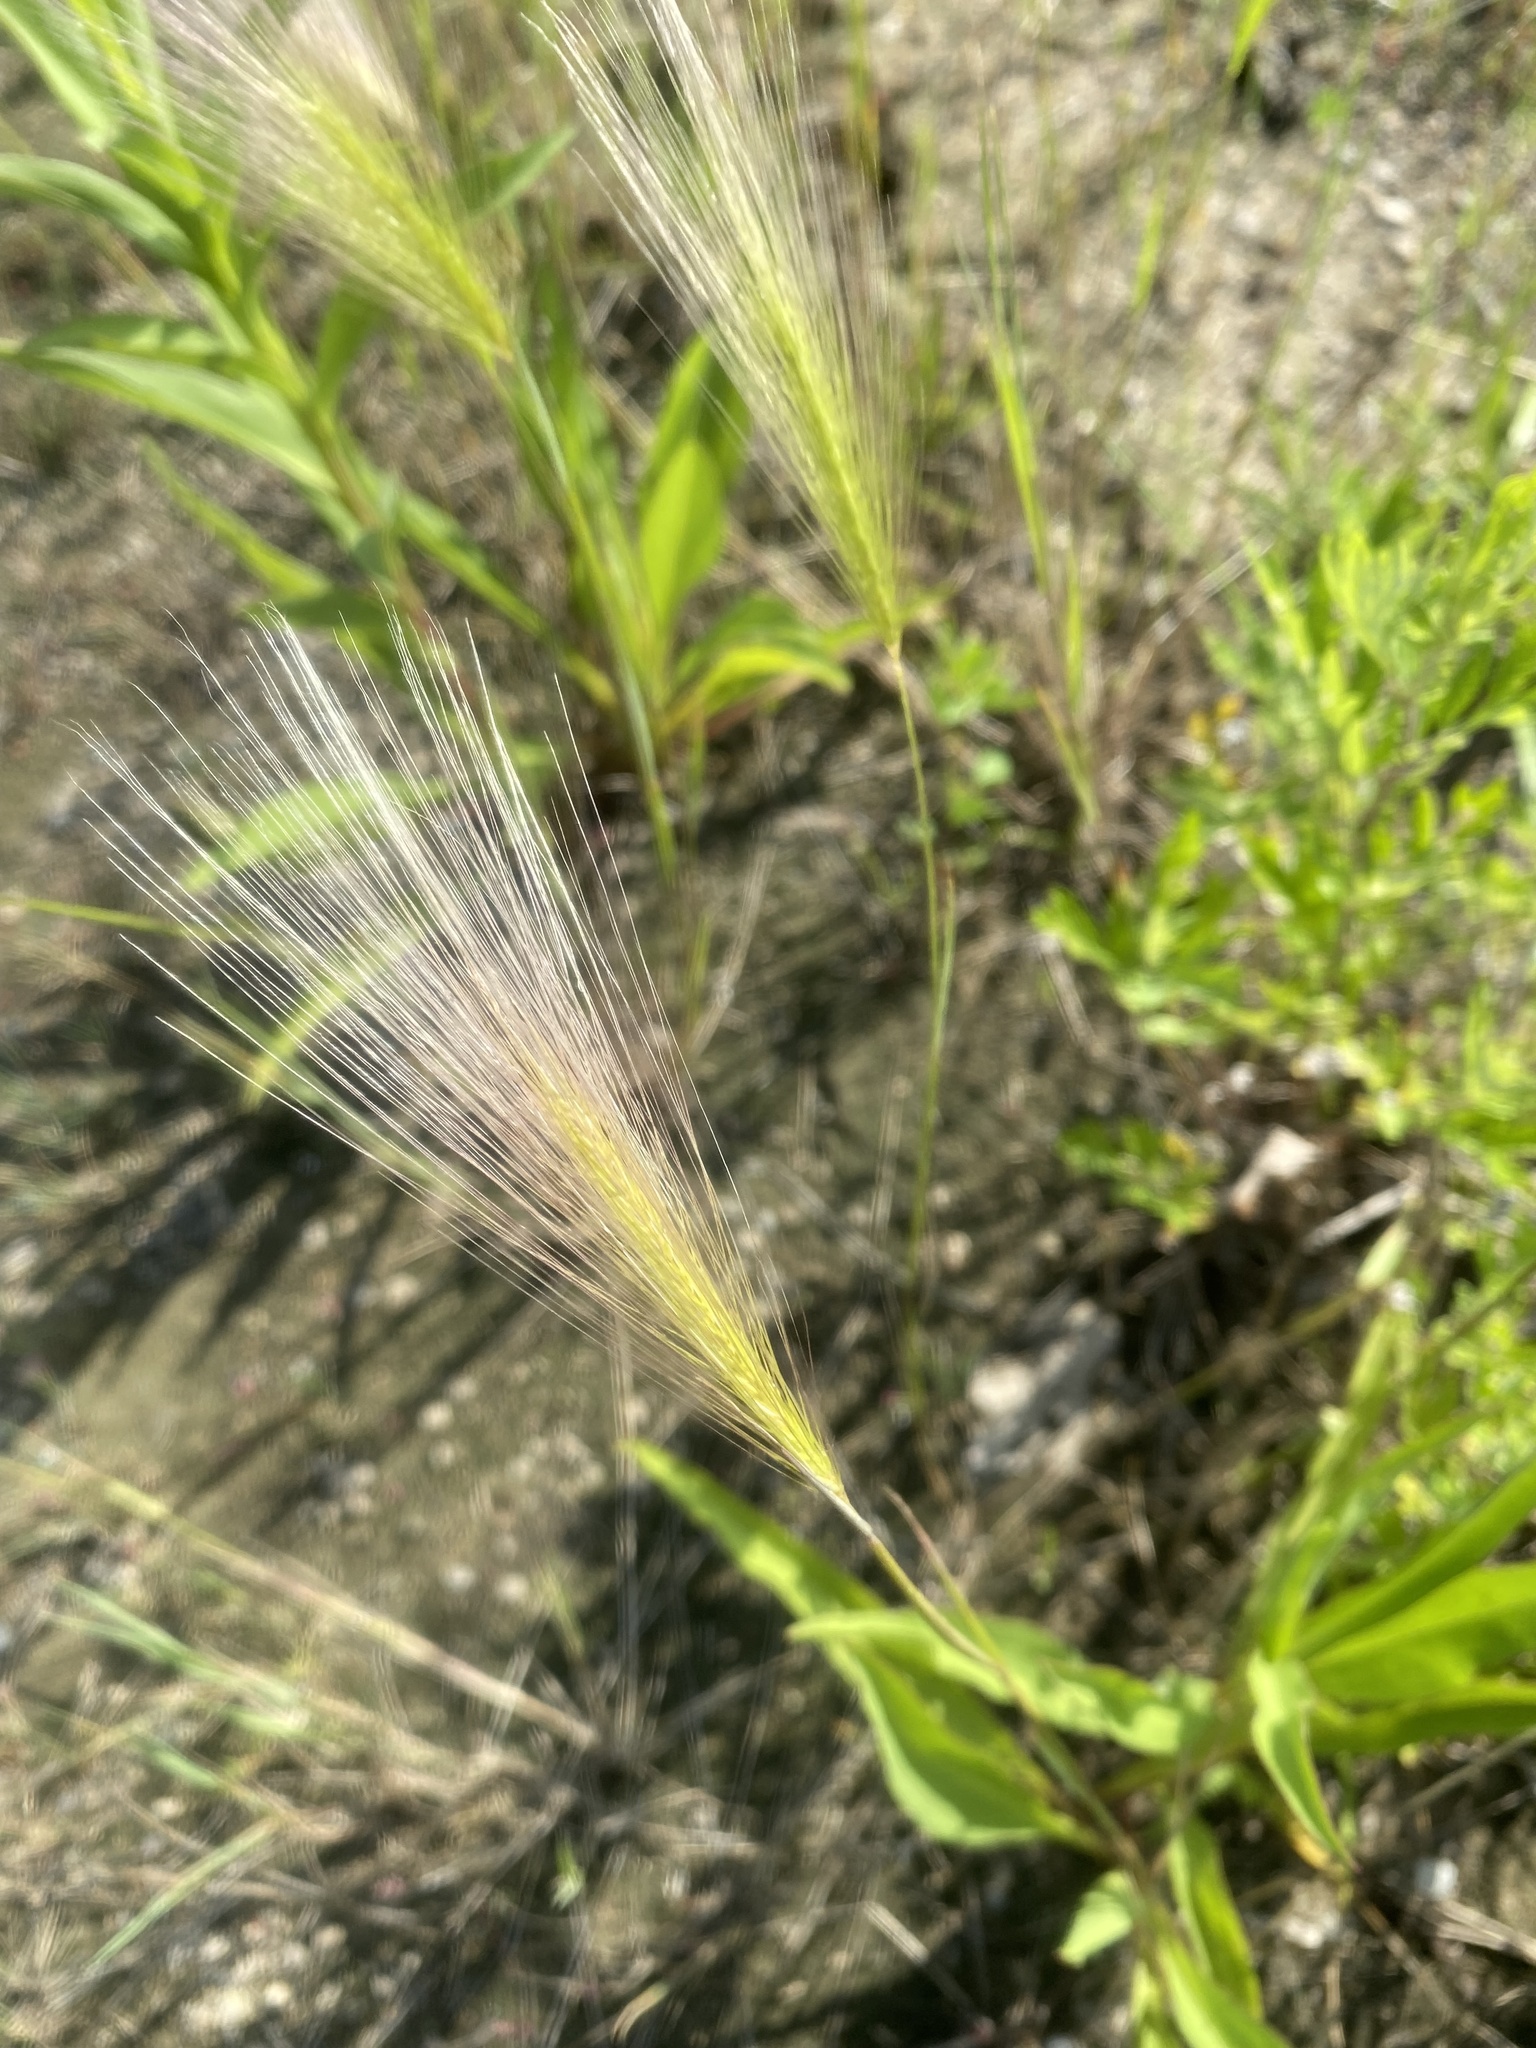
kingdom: Plantae
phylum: Tracheophyta
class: Liliopsida
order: Poales
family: Poaceae
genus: Hordeum
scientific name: Hordeum jubatum
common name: Foxtail barley
